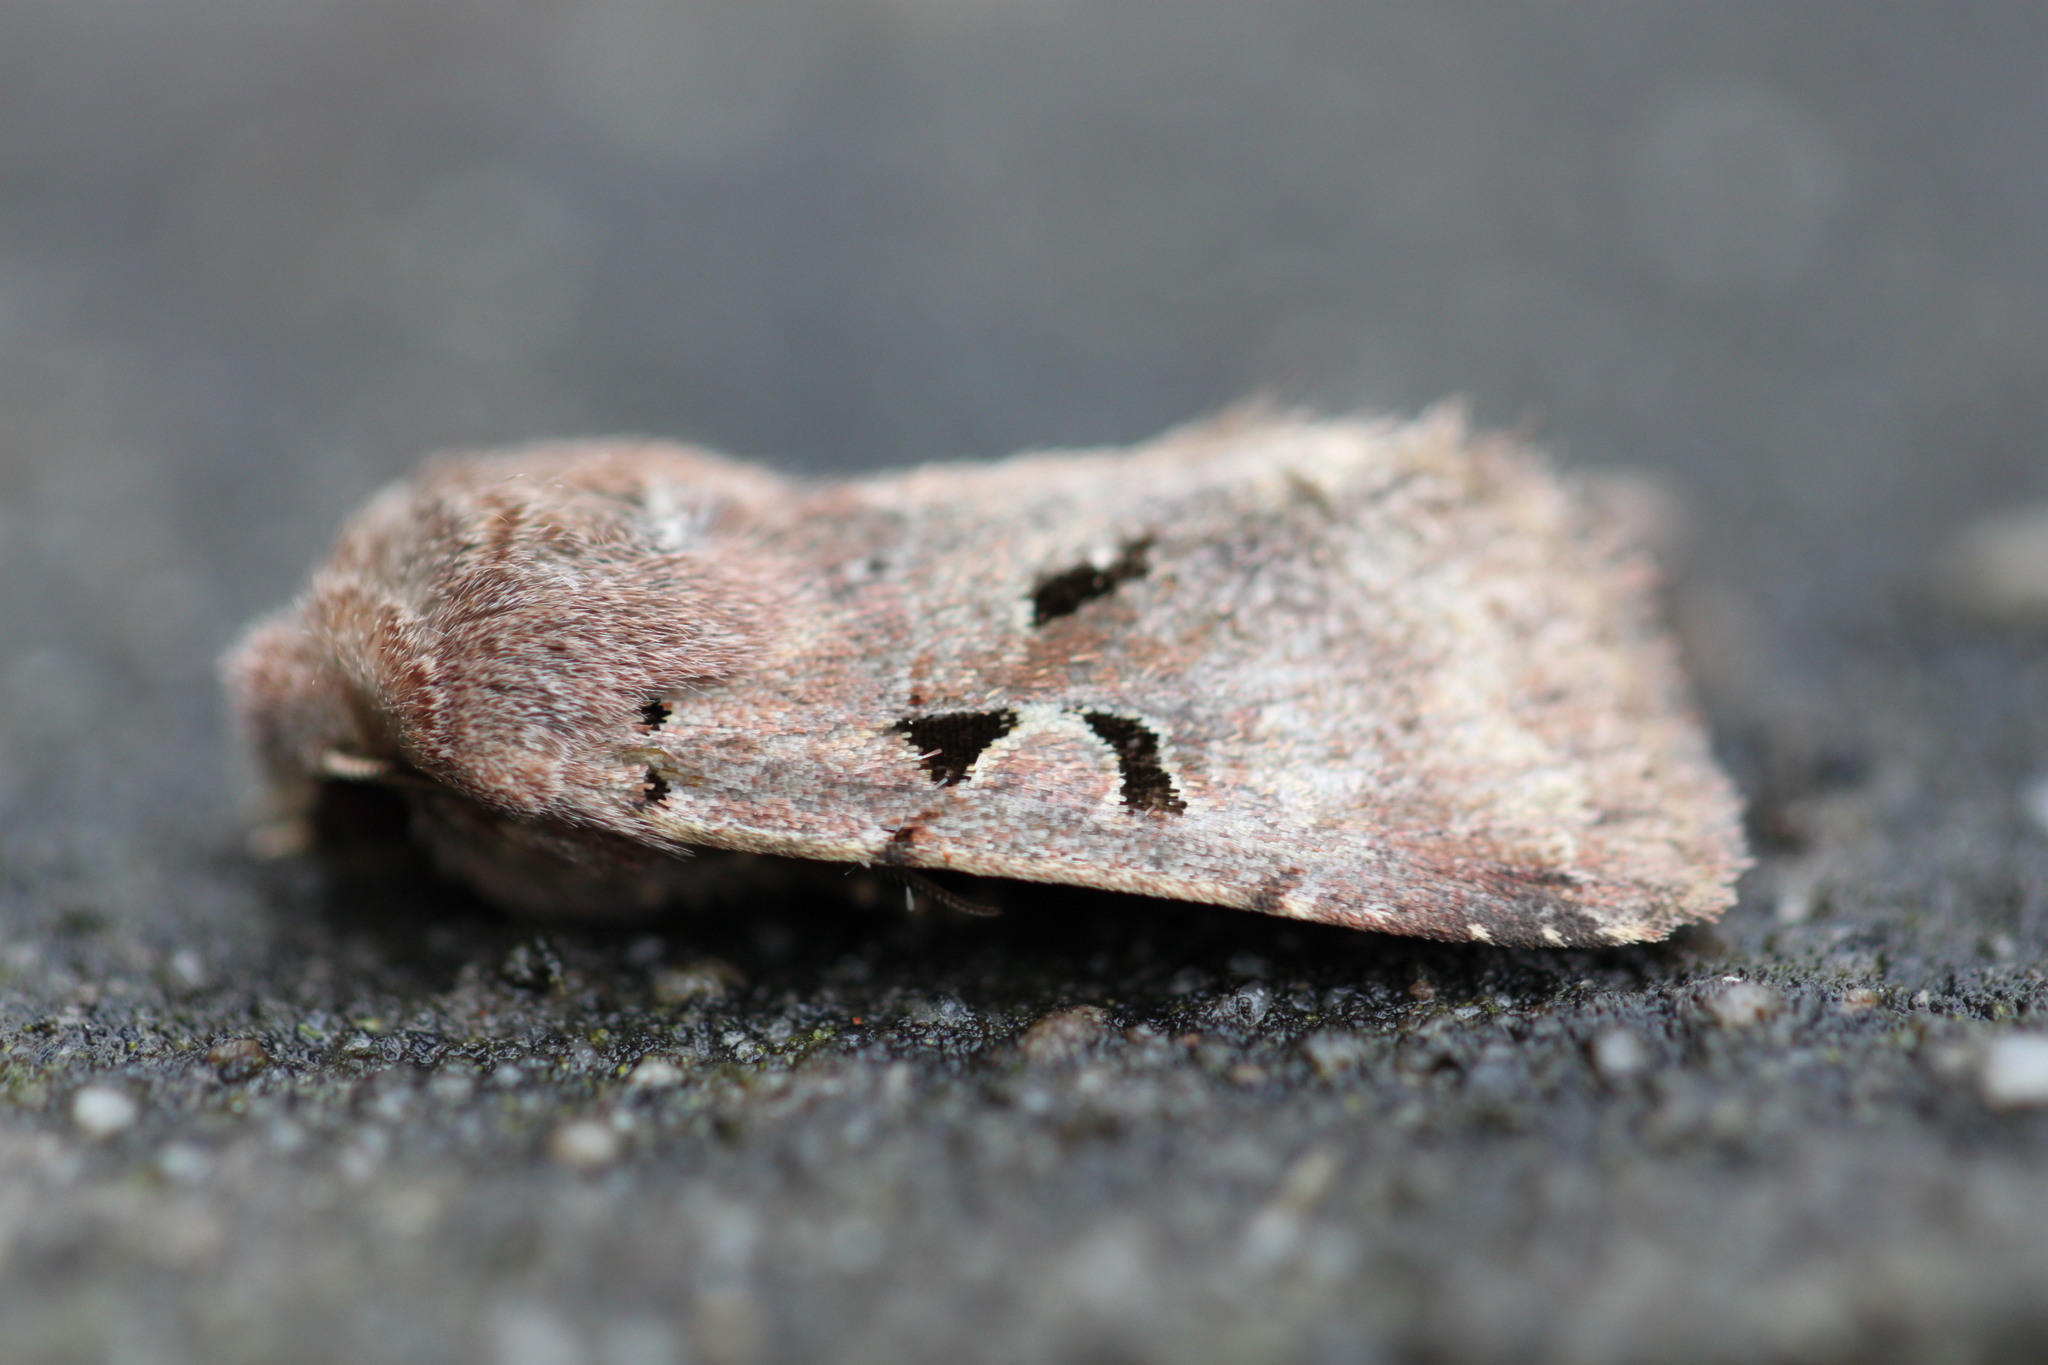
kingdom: Animalia
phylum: Arthropoda
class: Insecta
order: Lepidoptera
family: Noctuidae
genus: Orthosia
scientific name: Orthosia gothica
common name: Hebrew character
